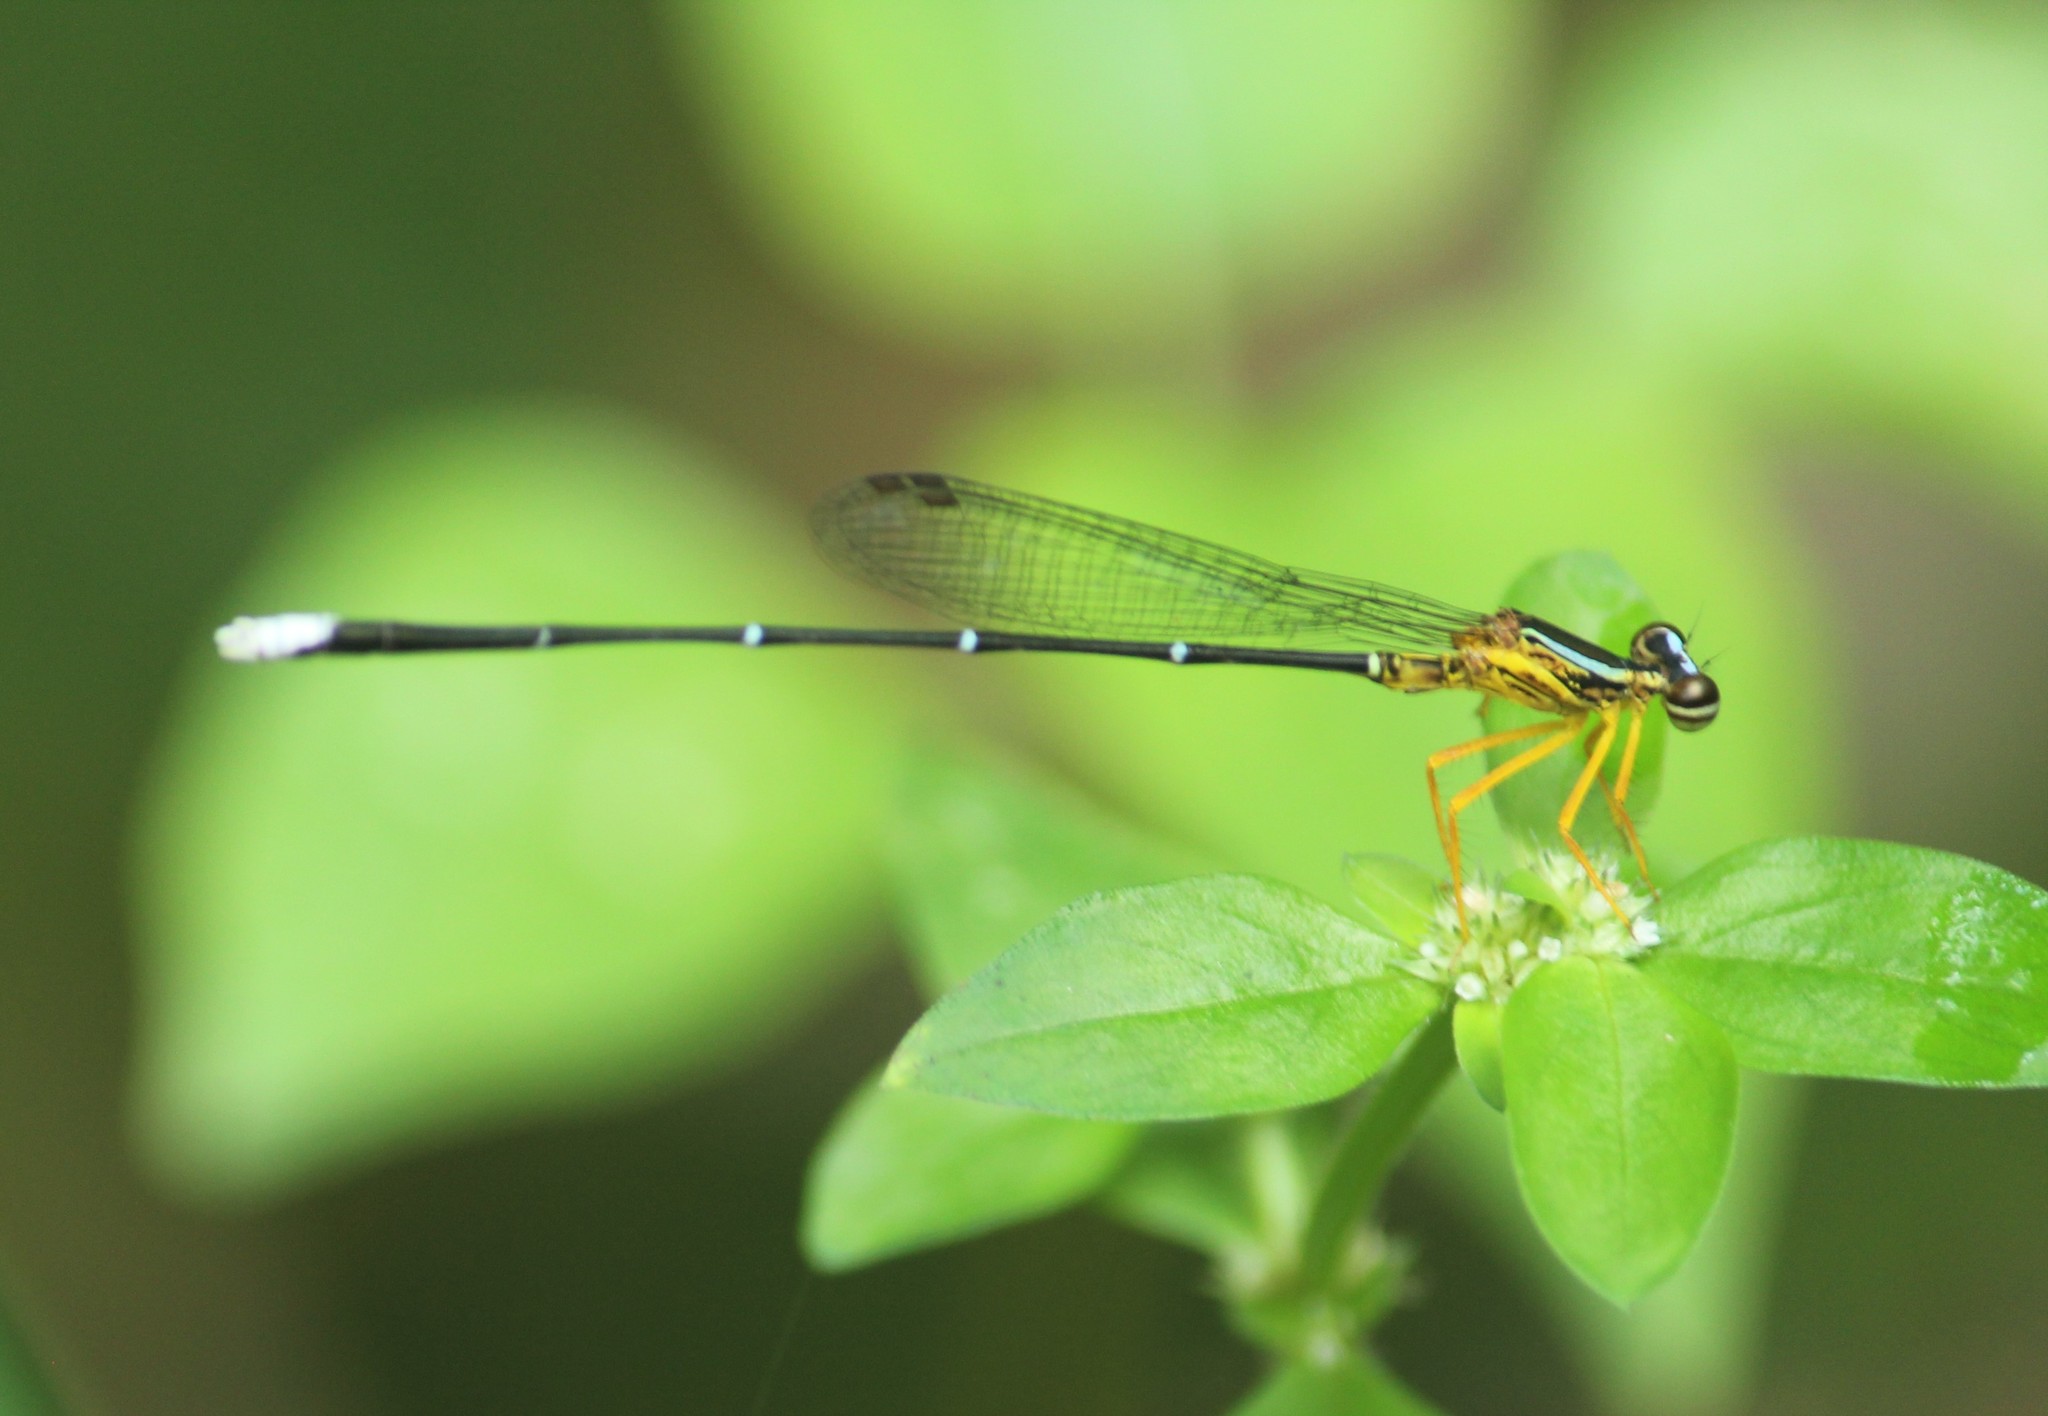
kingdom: Animalia
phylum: Arthropoda
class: Insecta
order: Odonata
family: Platycnemididae
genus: Copera
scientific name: Copera vittata
